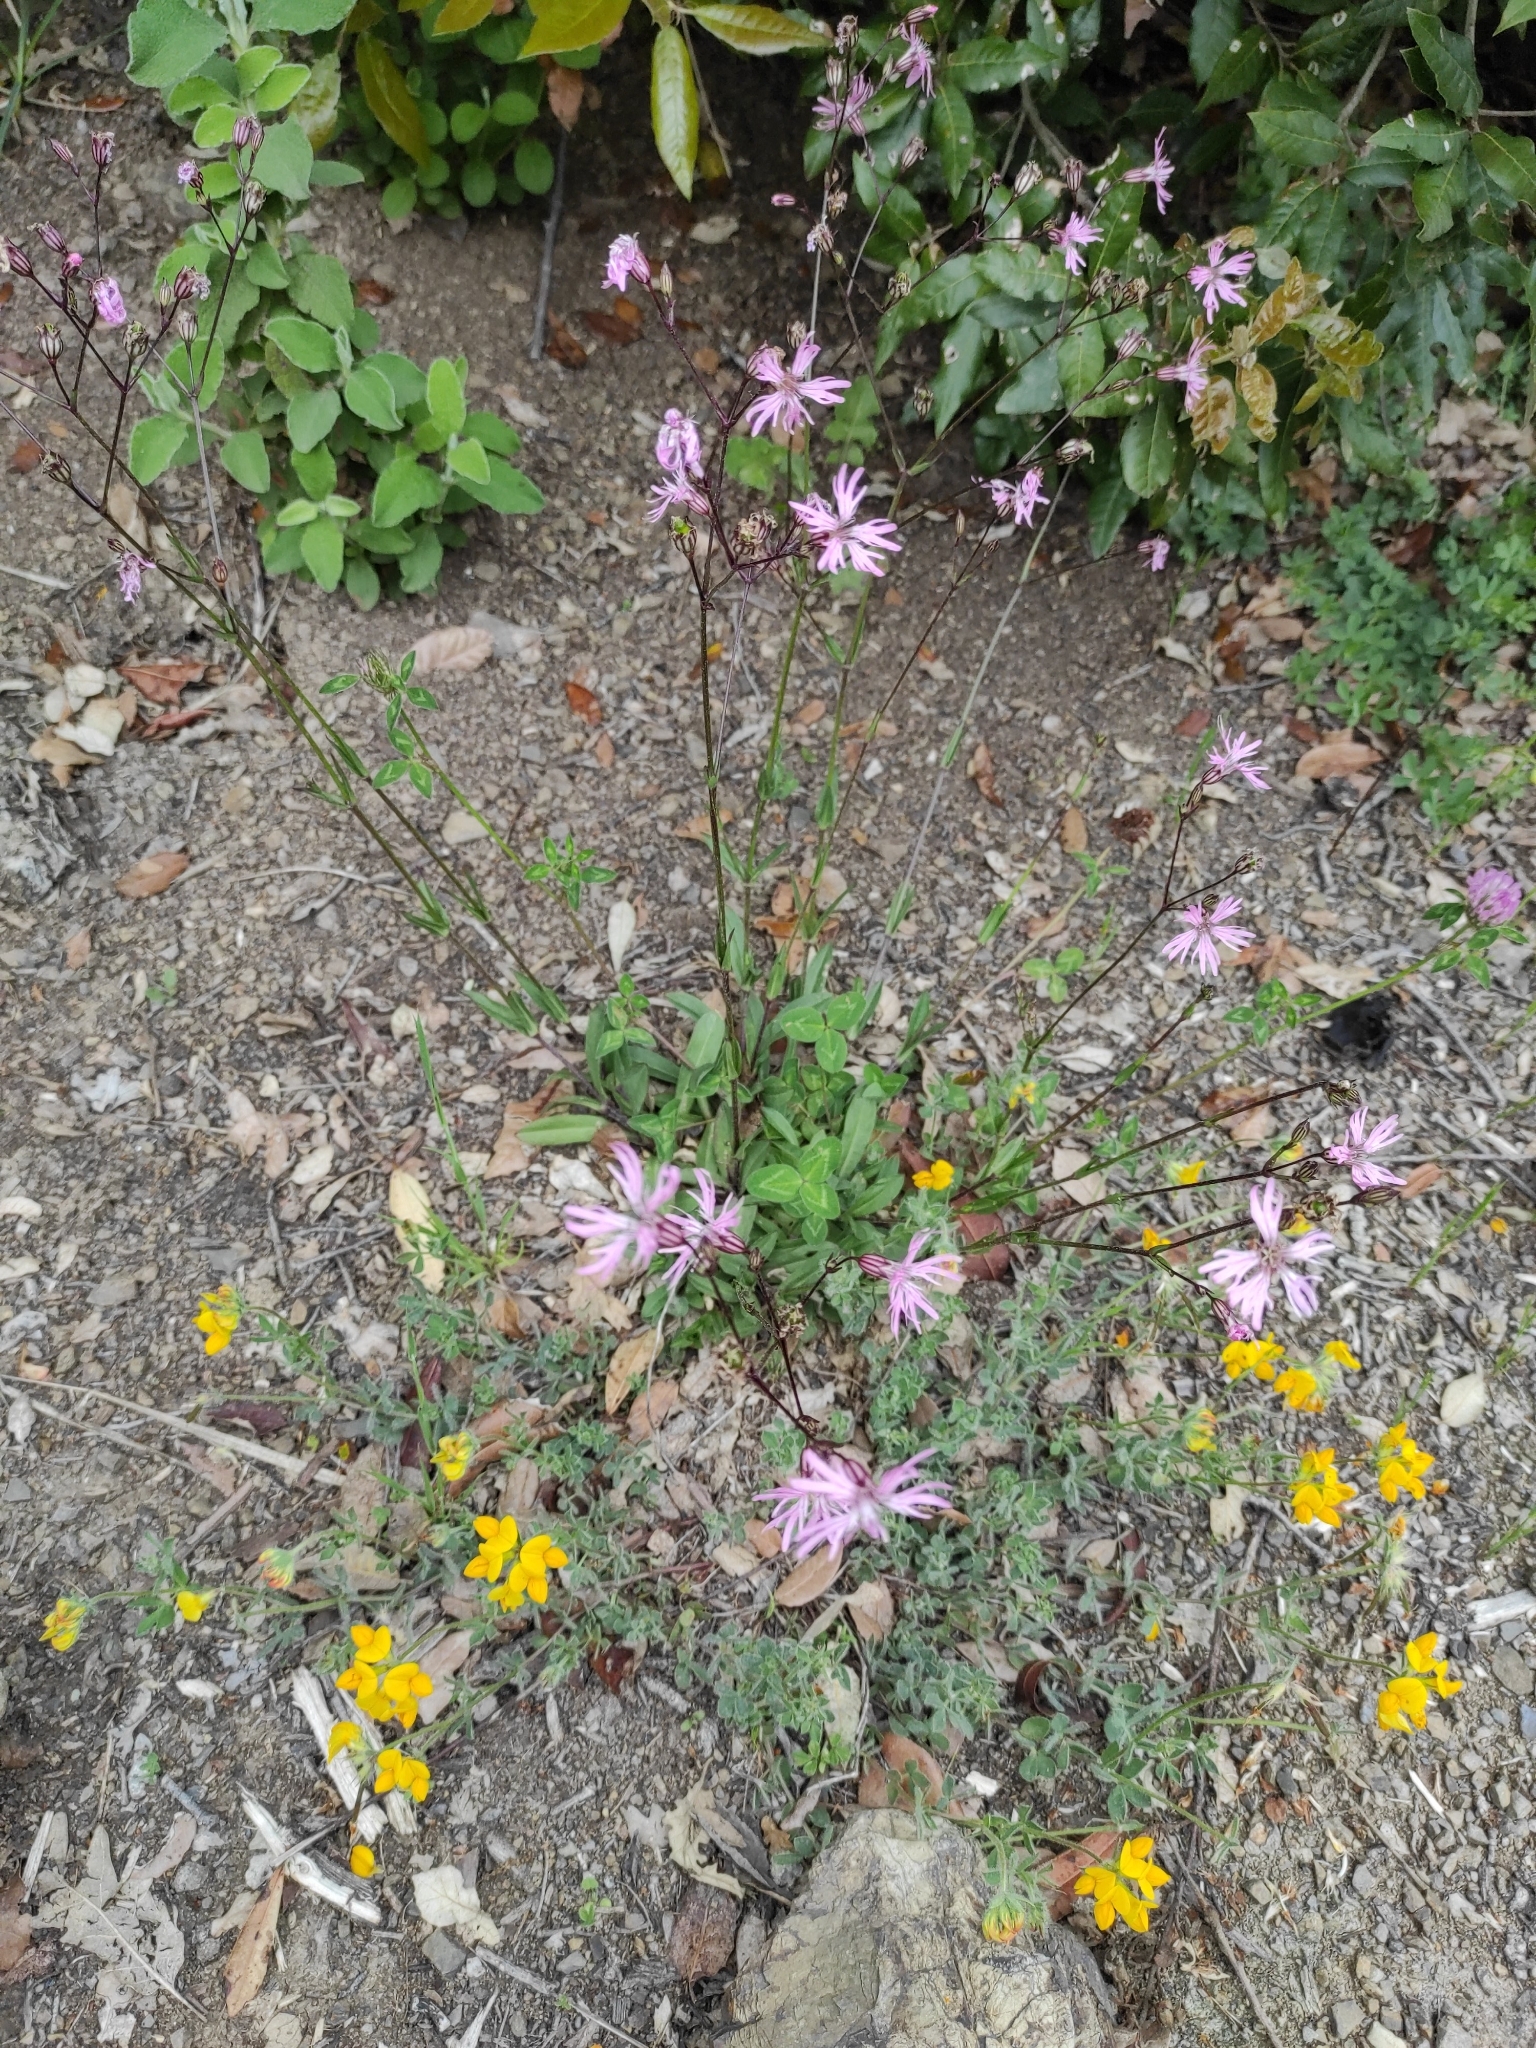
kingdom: Plantae
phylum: Tracheophyta
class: Magnoliopsida
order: Caryophyllales
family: Caryophyllaceae
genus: Silene
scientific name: Silene flos-cuculi
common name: Ragged-robin
